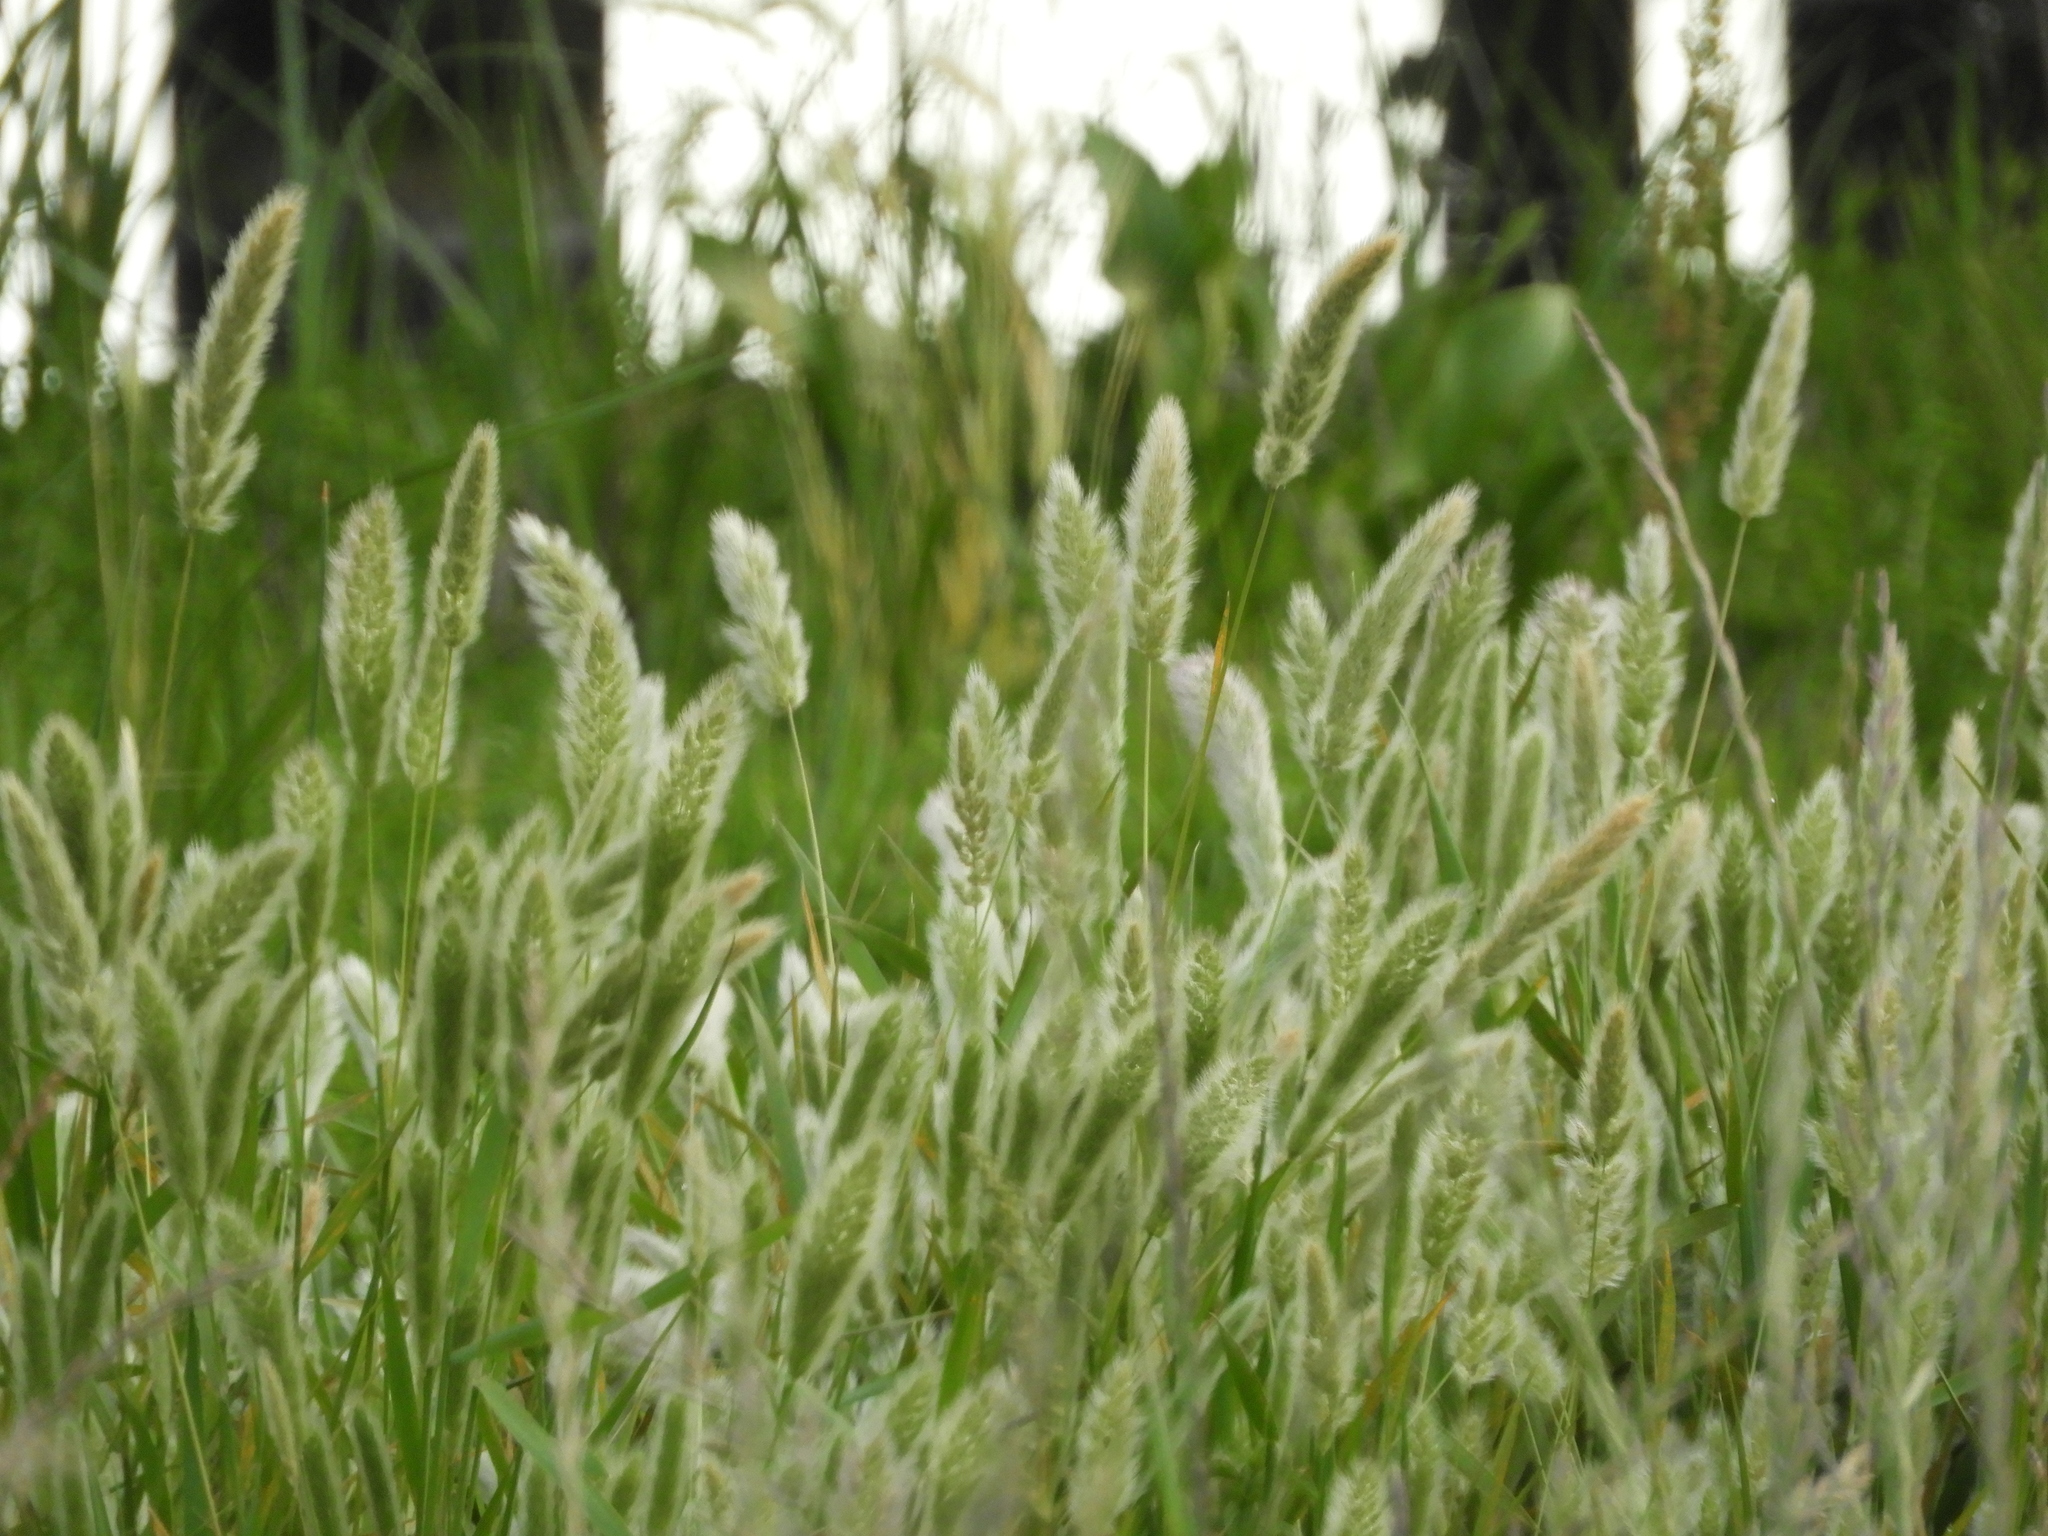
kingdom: Plantae
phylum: Tracheophyta
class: Liliopsida
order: Poales
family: Poaceae
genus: Polypogon
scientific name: Polypogon monspeliensis
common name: Annual rabbitsfoot grass
